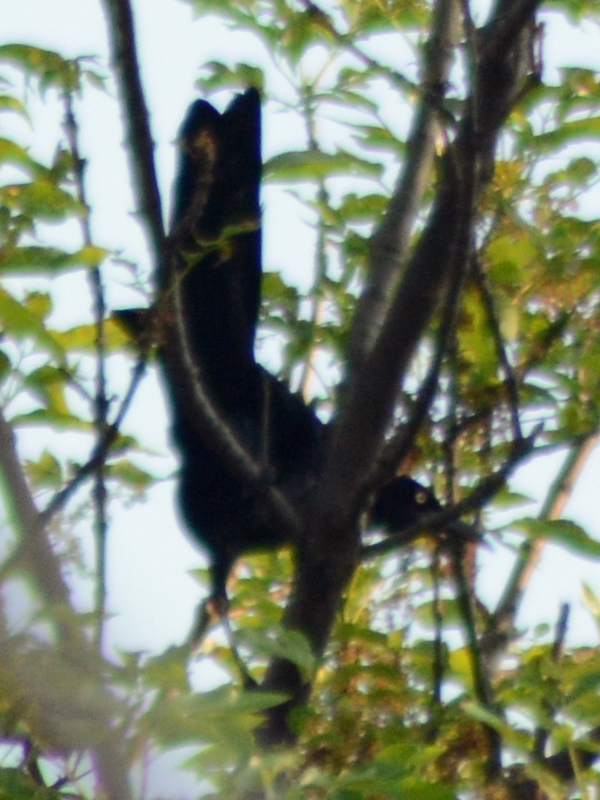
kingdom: Animalia
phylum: Chordata
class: Aves
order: Passeriformes
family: Icteridae
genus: Quiscalus
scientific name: Quiscalus mexicanus
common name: Great-tailed grackle
